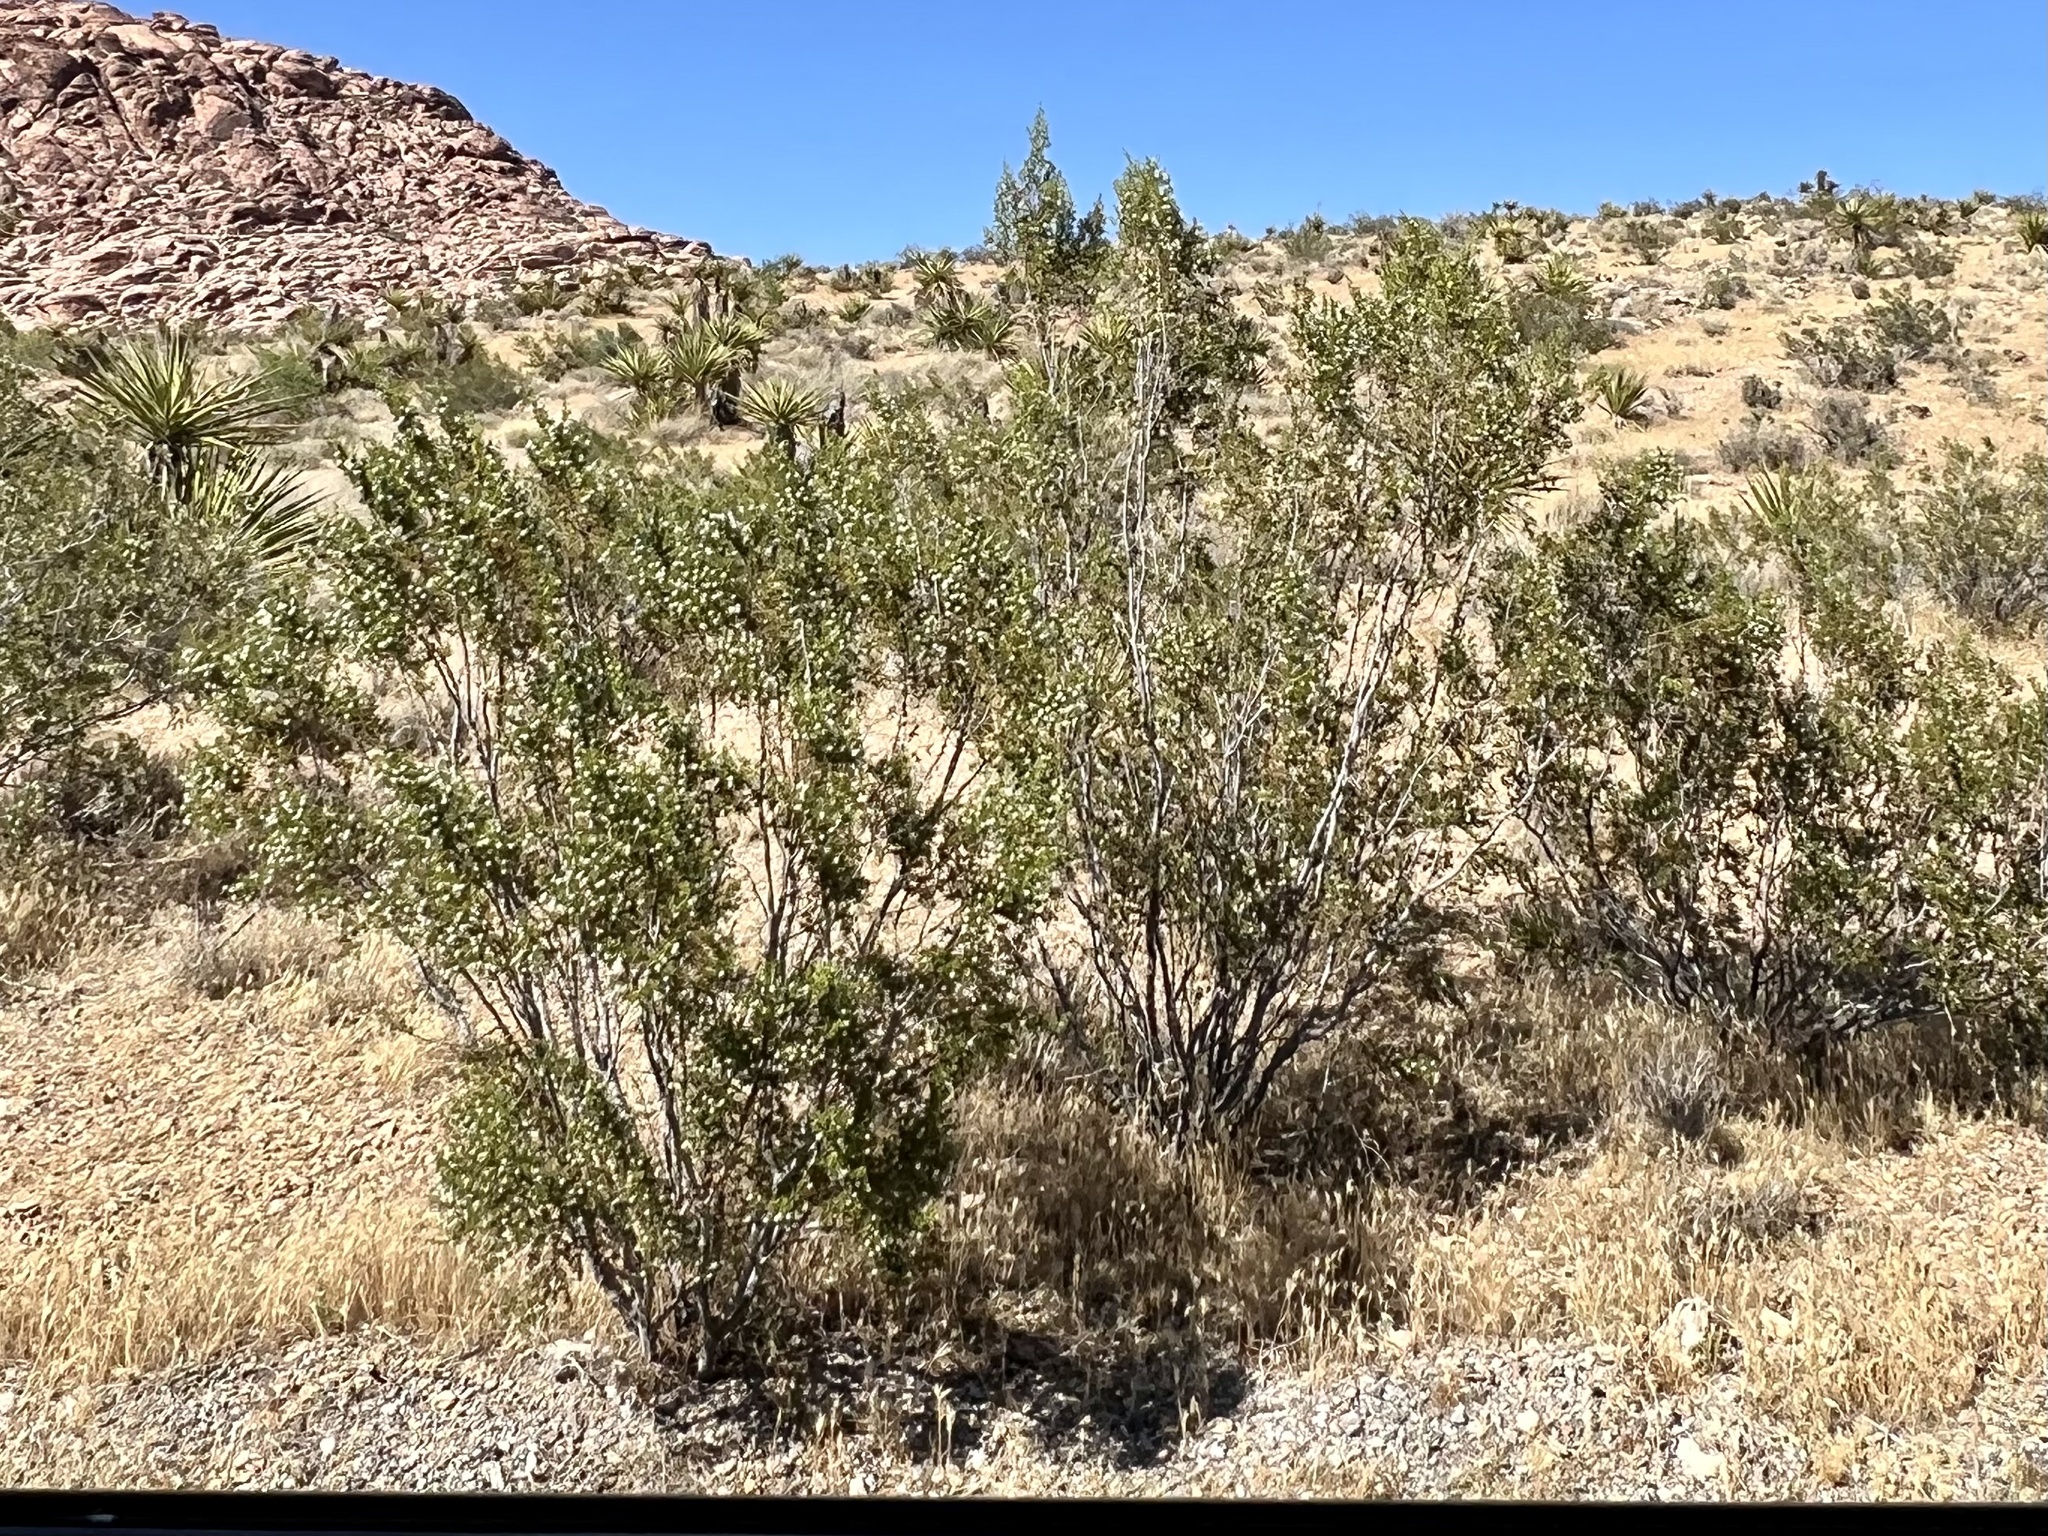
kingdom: Plantae
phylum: Tracheophyta
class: Magnoliopsida
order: Zygophyllales
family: Zygophyllaceae
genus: Larrea
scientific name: Larrea tridentata
